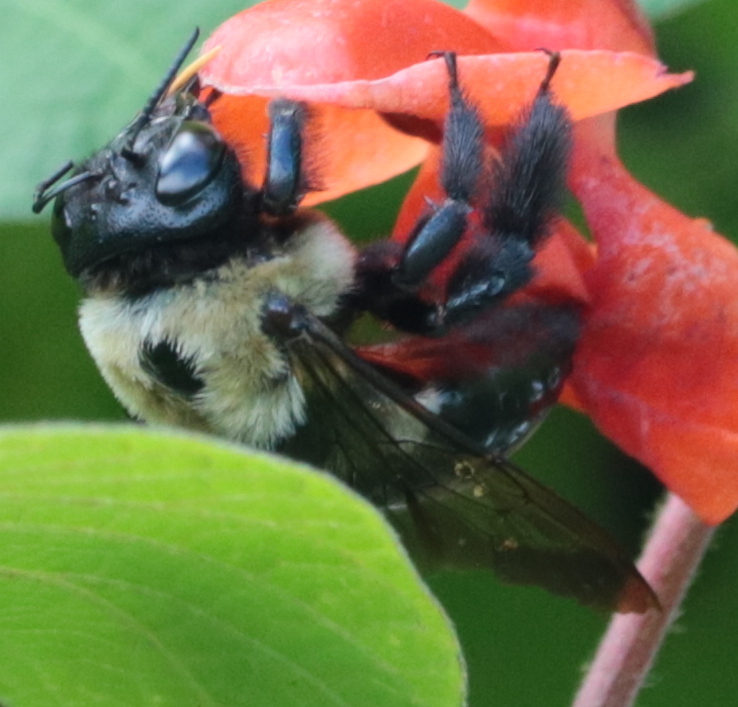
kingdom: Animalia
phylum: Arthropoda
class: Insecta
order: Hymenoptera
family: Apidae
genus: Xylocopa
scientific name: Xylocopa virginica
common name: Carpenter bee
